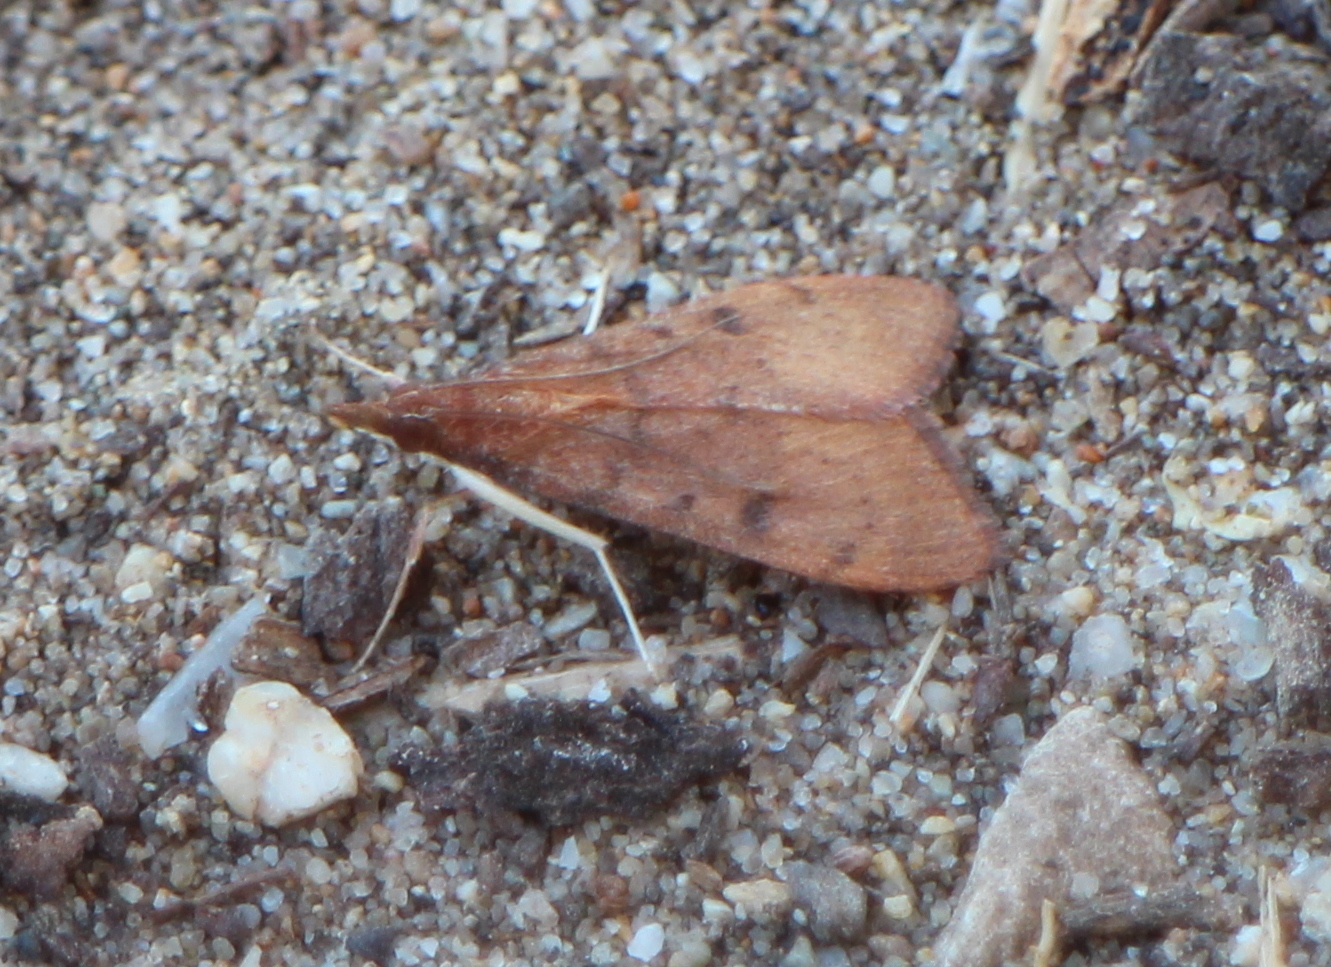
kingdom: Animalia
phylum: Arthropoda
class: Insecta
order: Lepidoptera
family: Crambidae
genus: Uresiphita
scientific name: Uresiphita reversalis
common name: Genista broom moth
